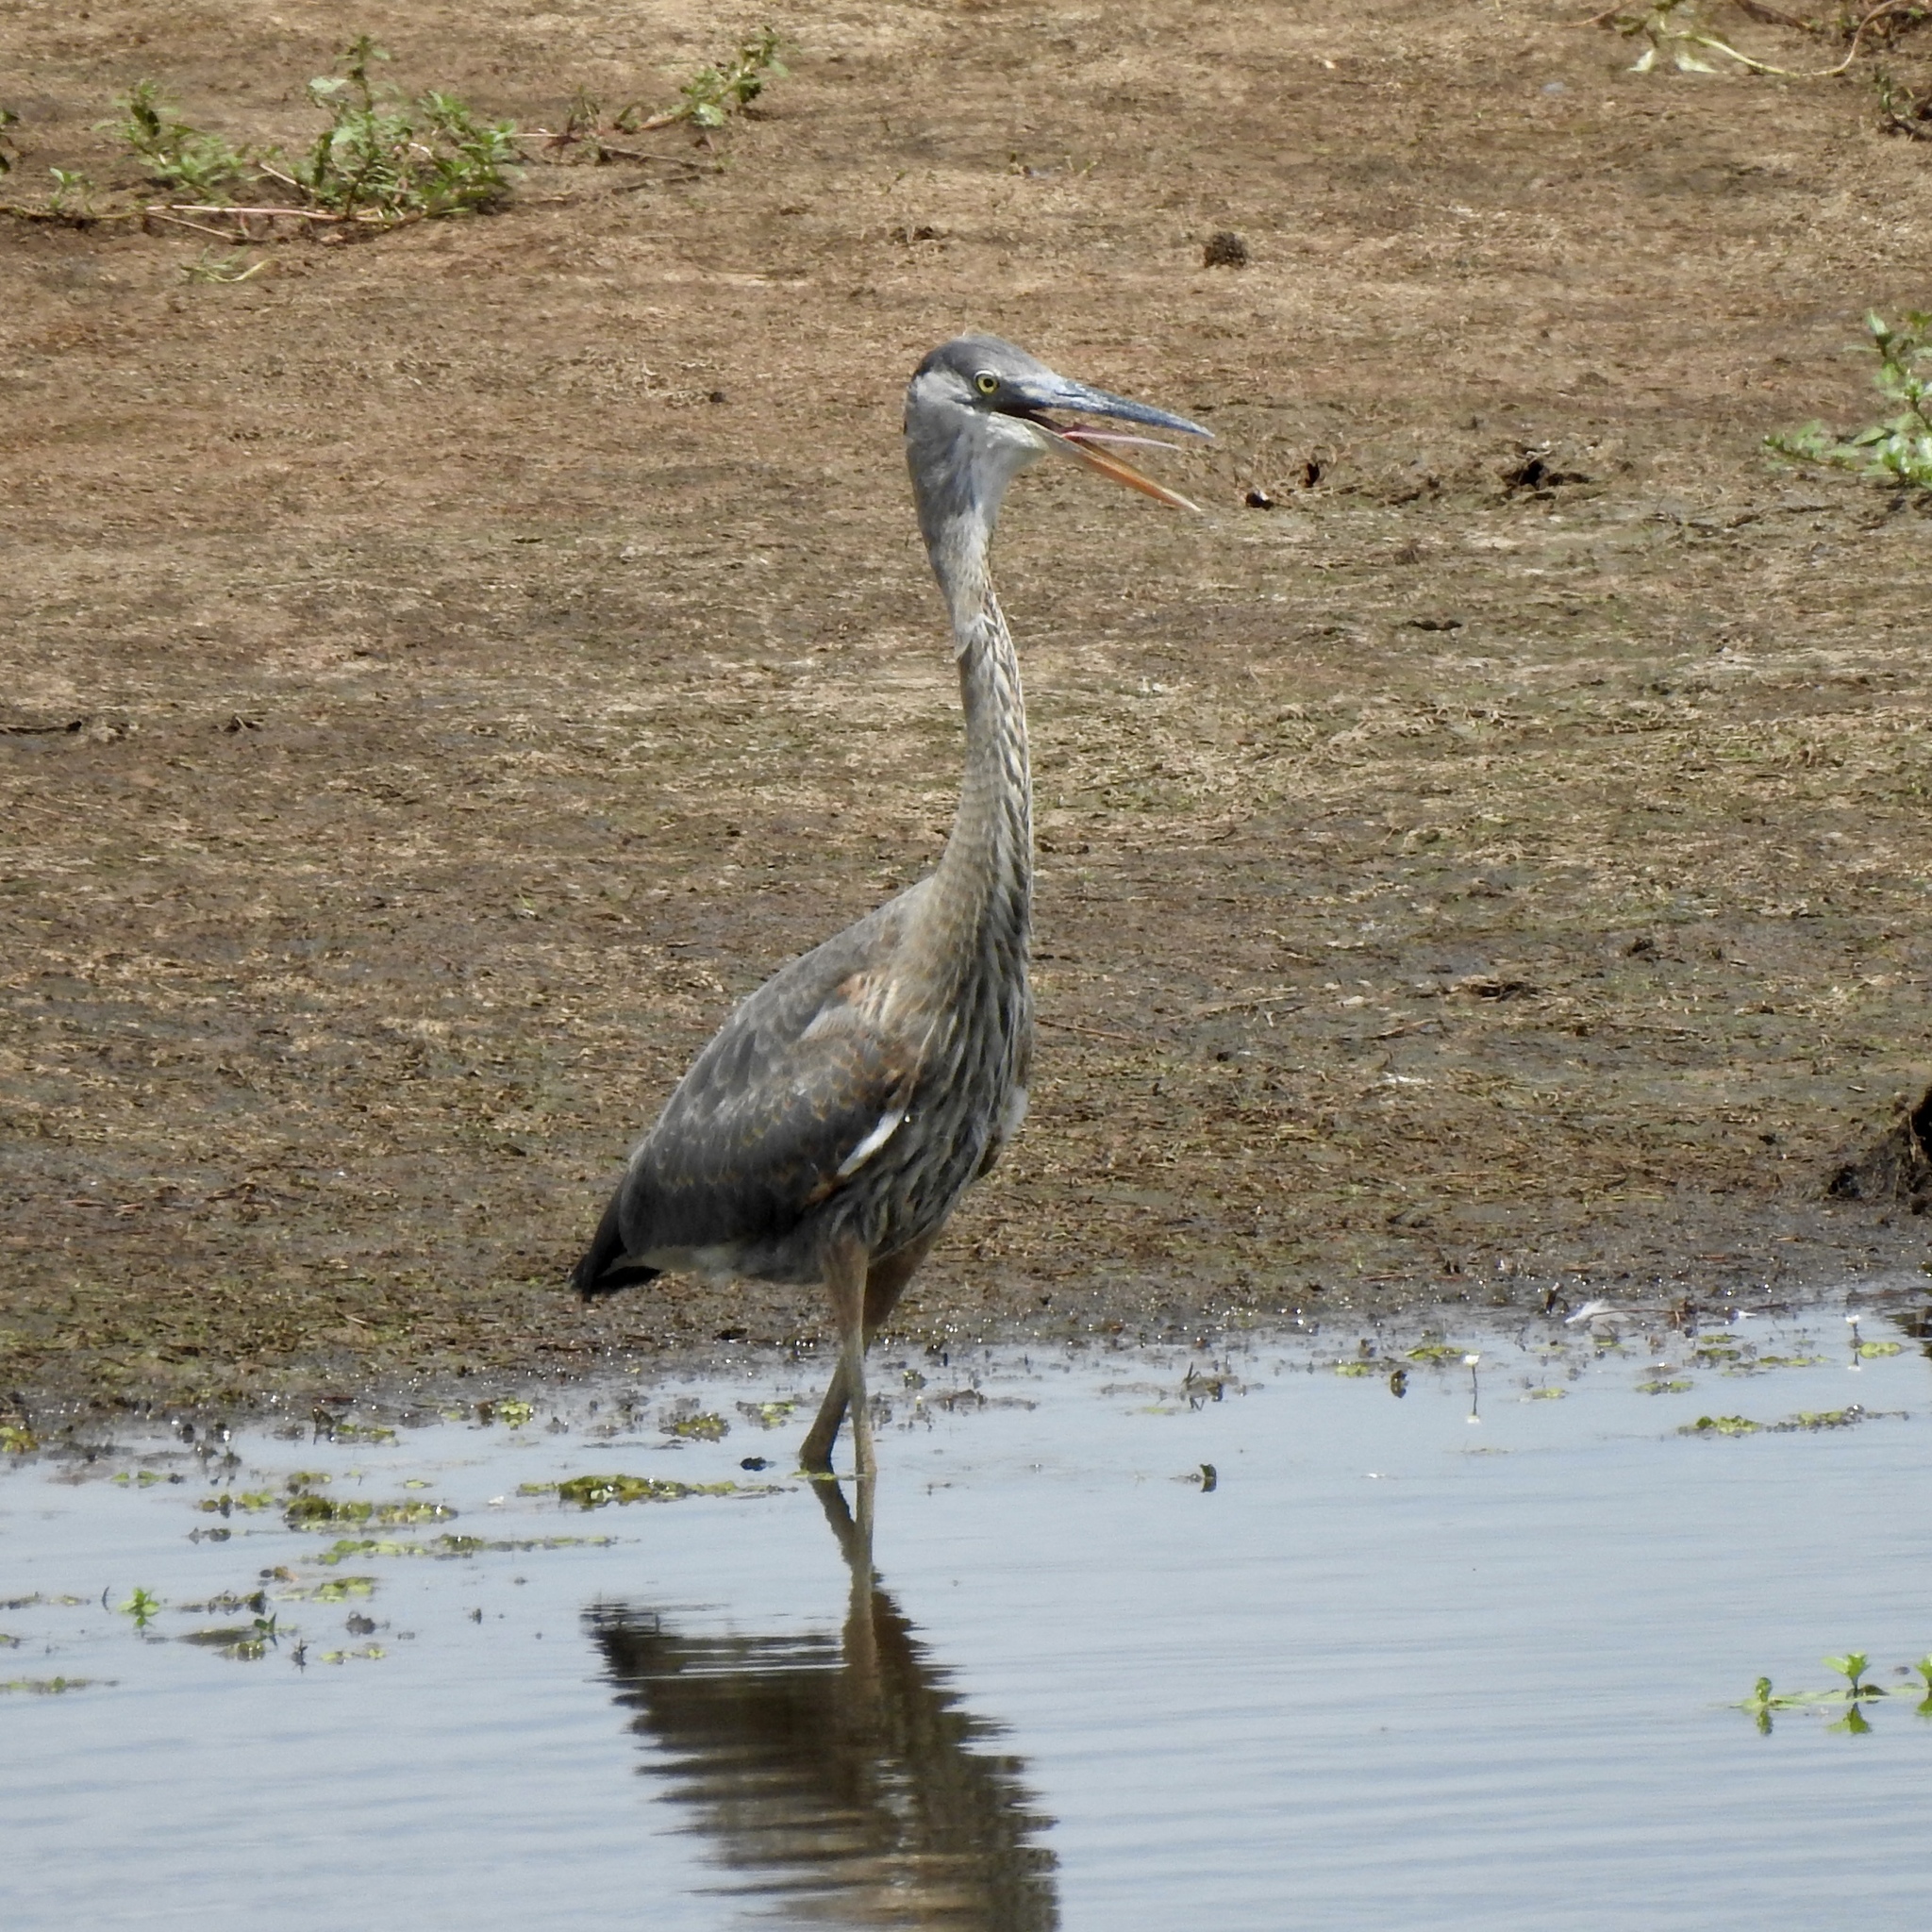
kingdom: Animalia
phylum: Chordata
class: Aves
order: Pelecaniformes
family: Ardeidae
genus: Ardea
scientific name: Ardea herodias
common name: Great blue heron
